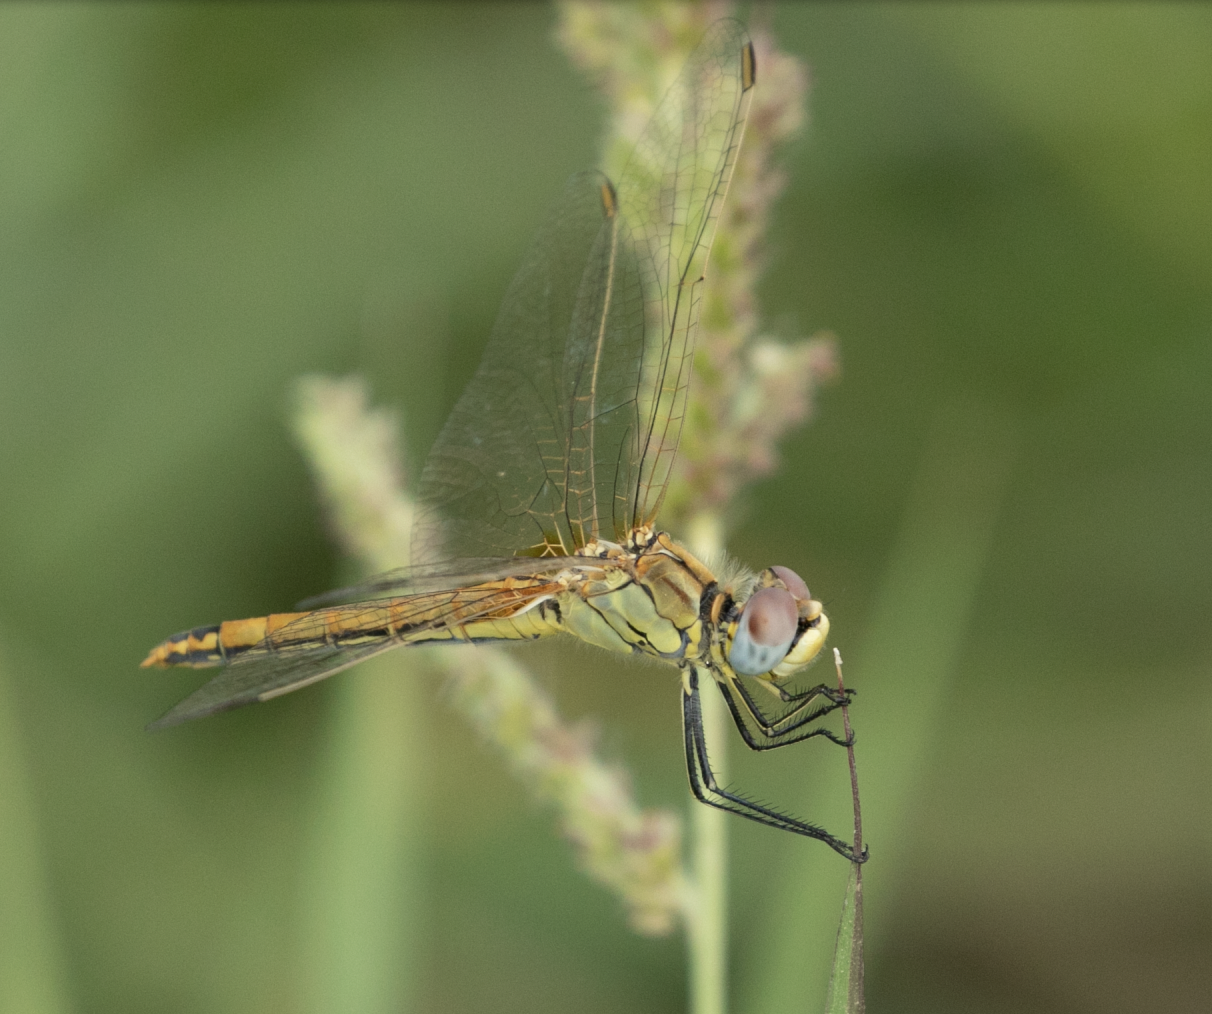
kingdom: Animalia
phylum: Arthropoda
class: Insecta
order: Odonata
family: Libellulidae
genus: Sympetrum
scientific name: Sympetrum fonscolombii
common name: Red-veined darter
